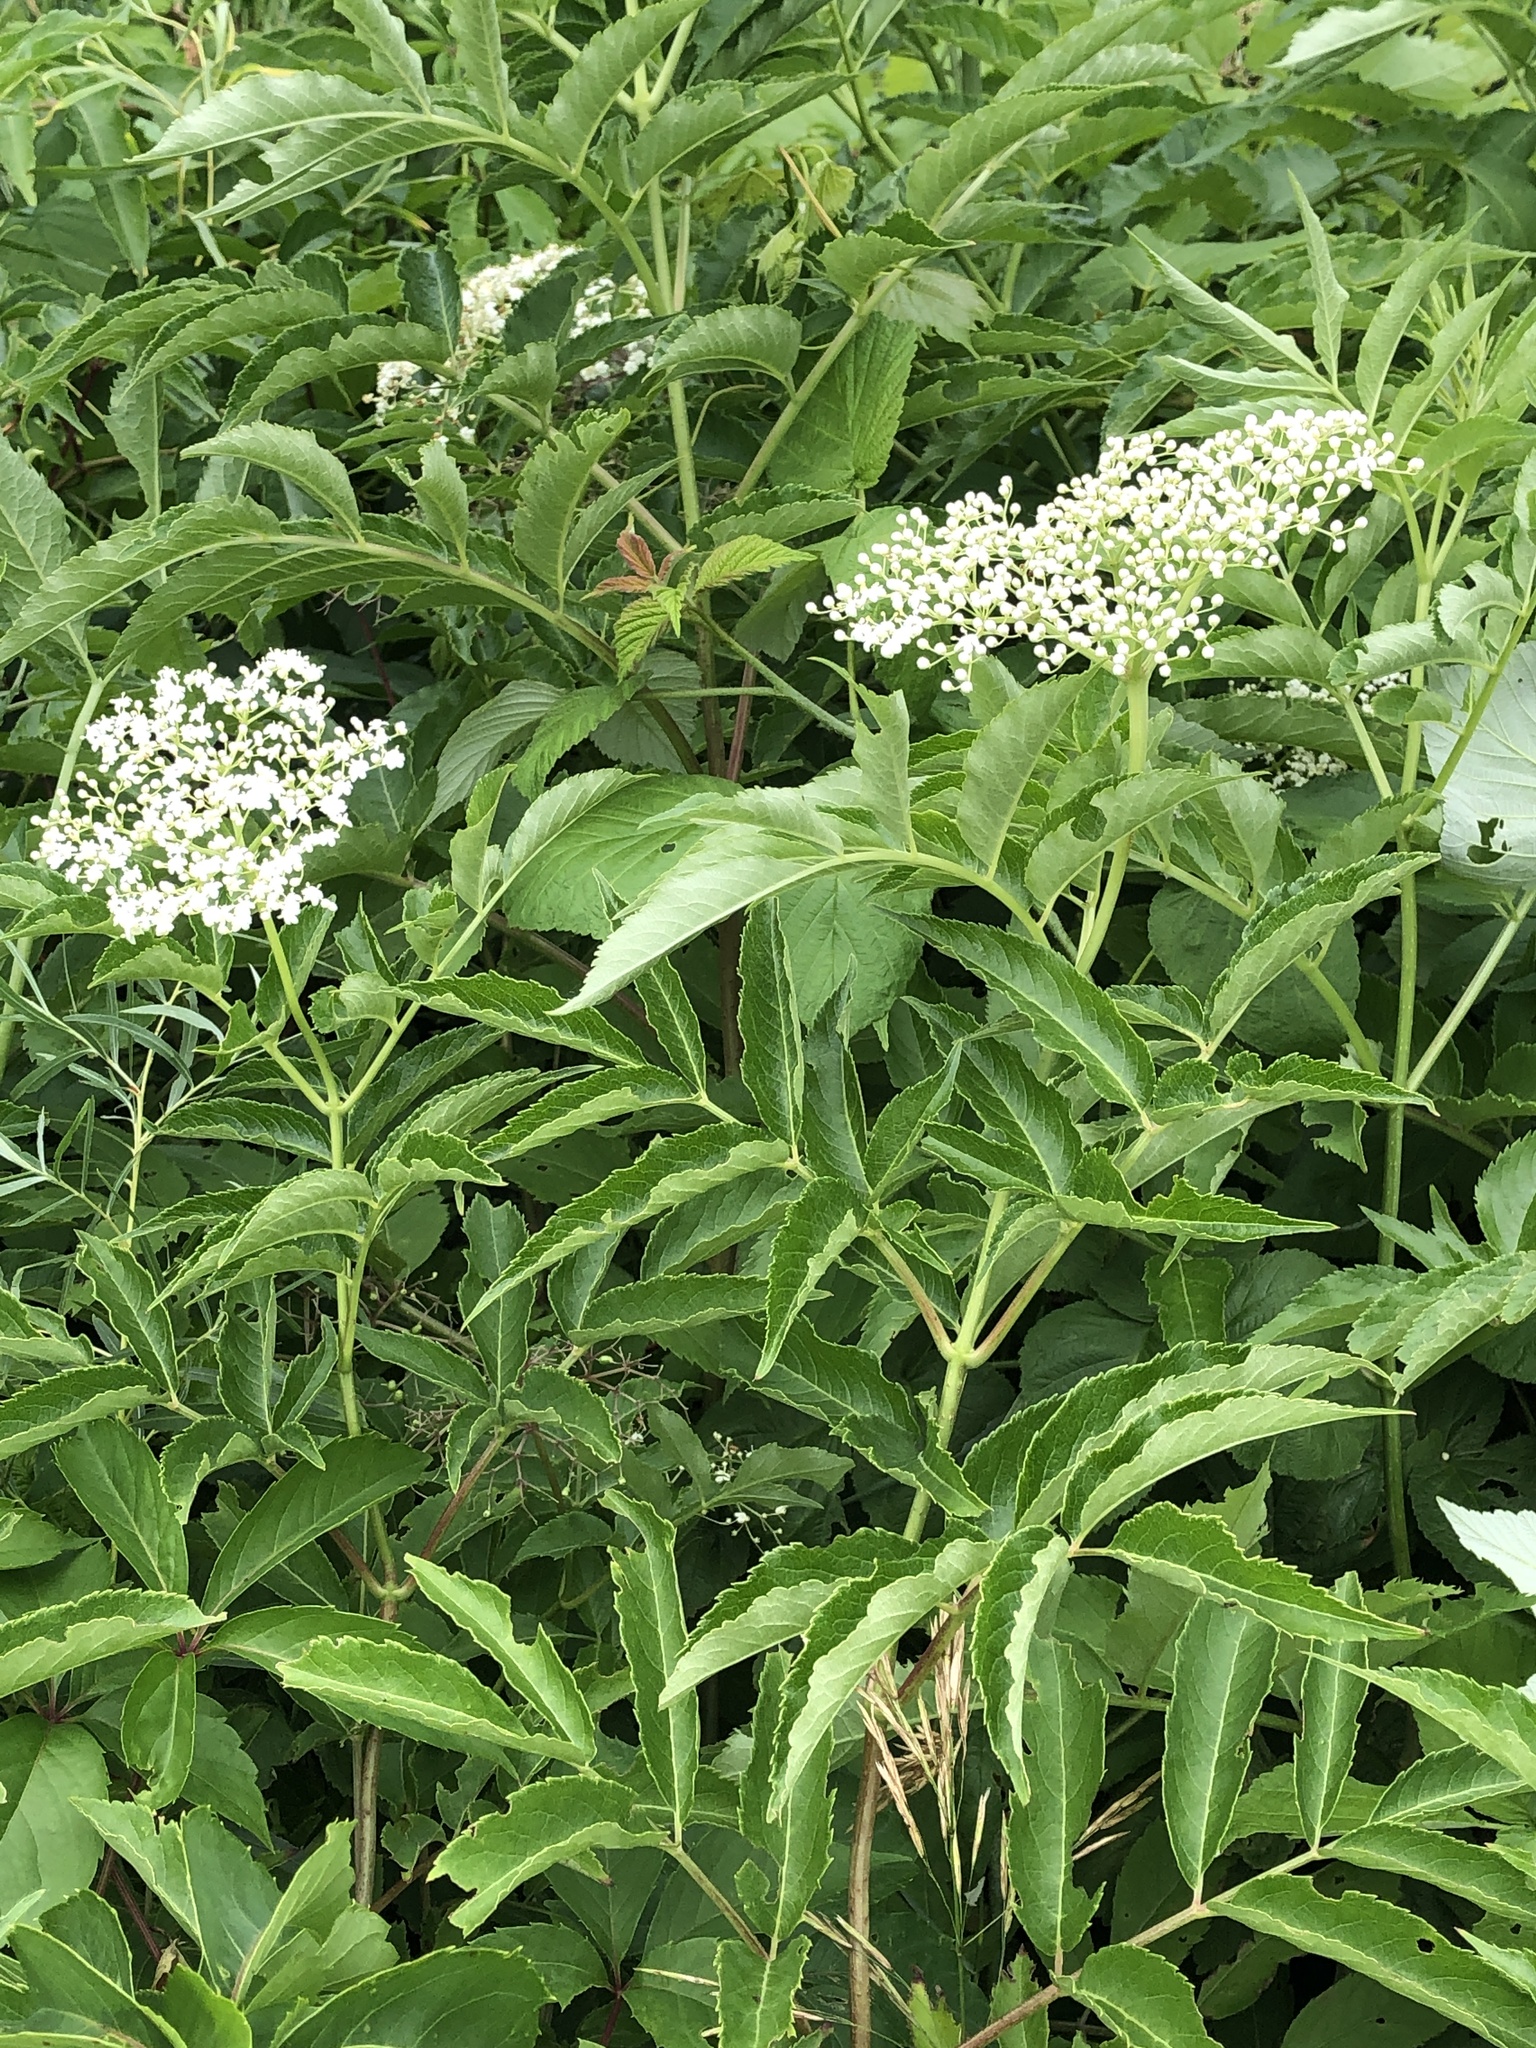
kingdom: Plantae
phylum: Tracheophyta
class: Magnoliopsida
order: Dipsacales
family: Viburnaceae
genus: Sambucus
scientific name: Sambucus canadensis
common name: American elder
